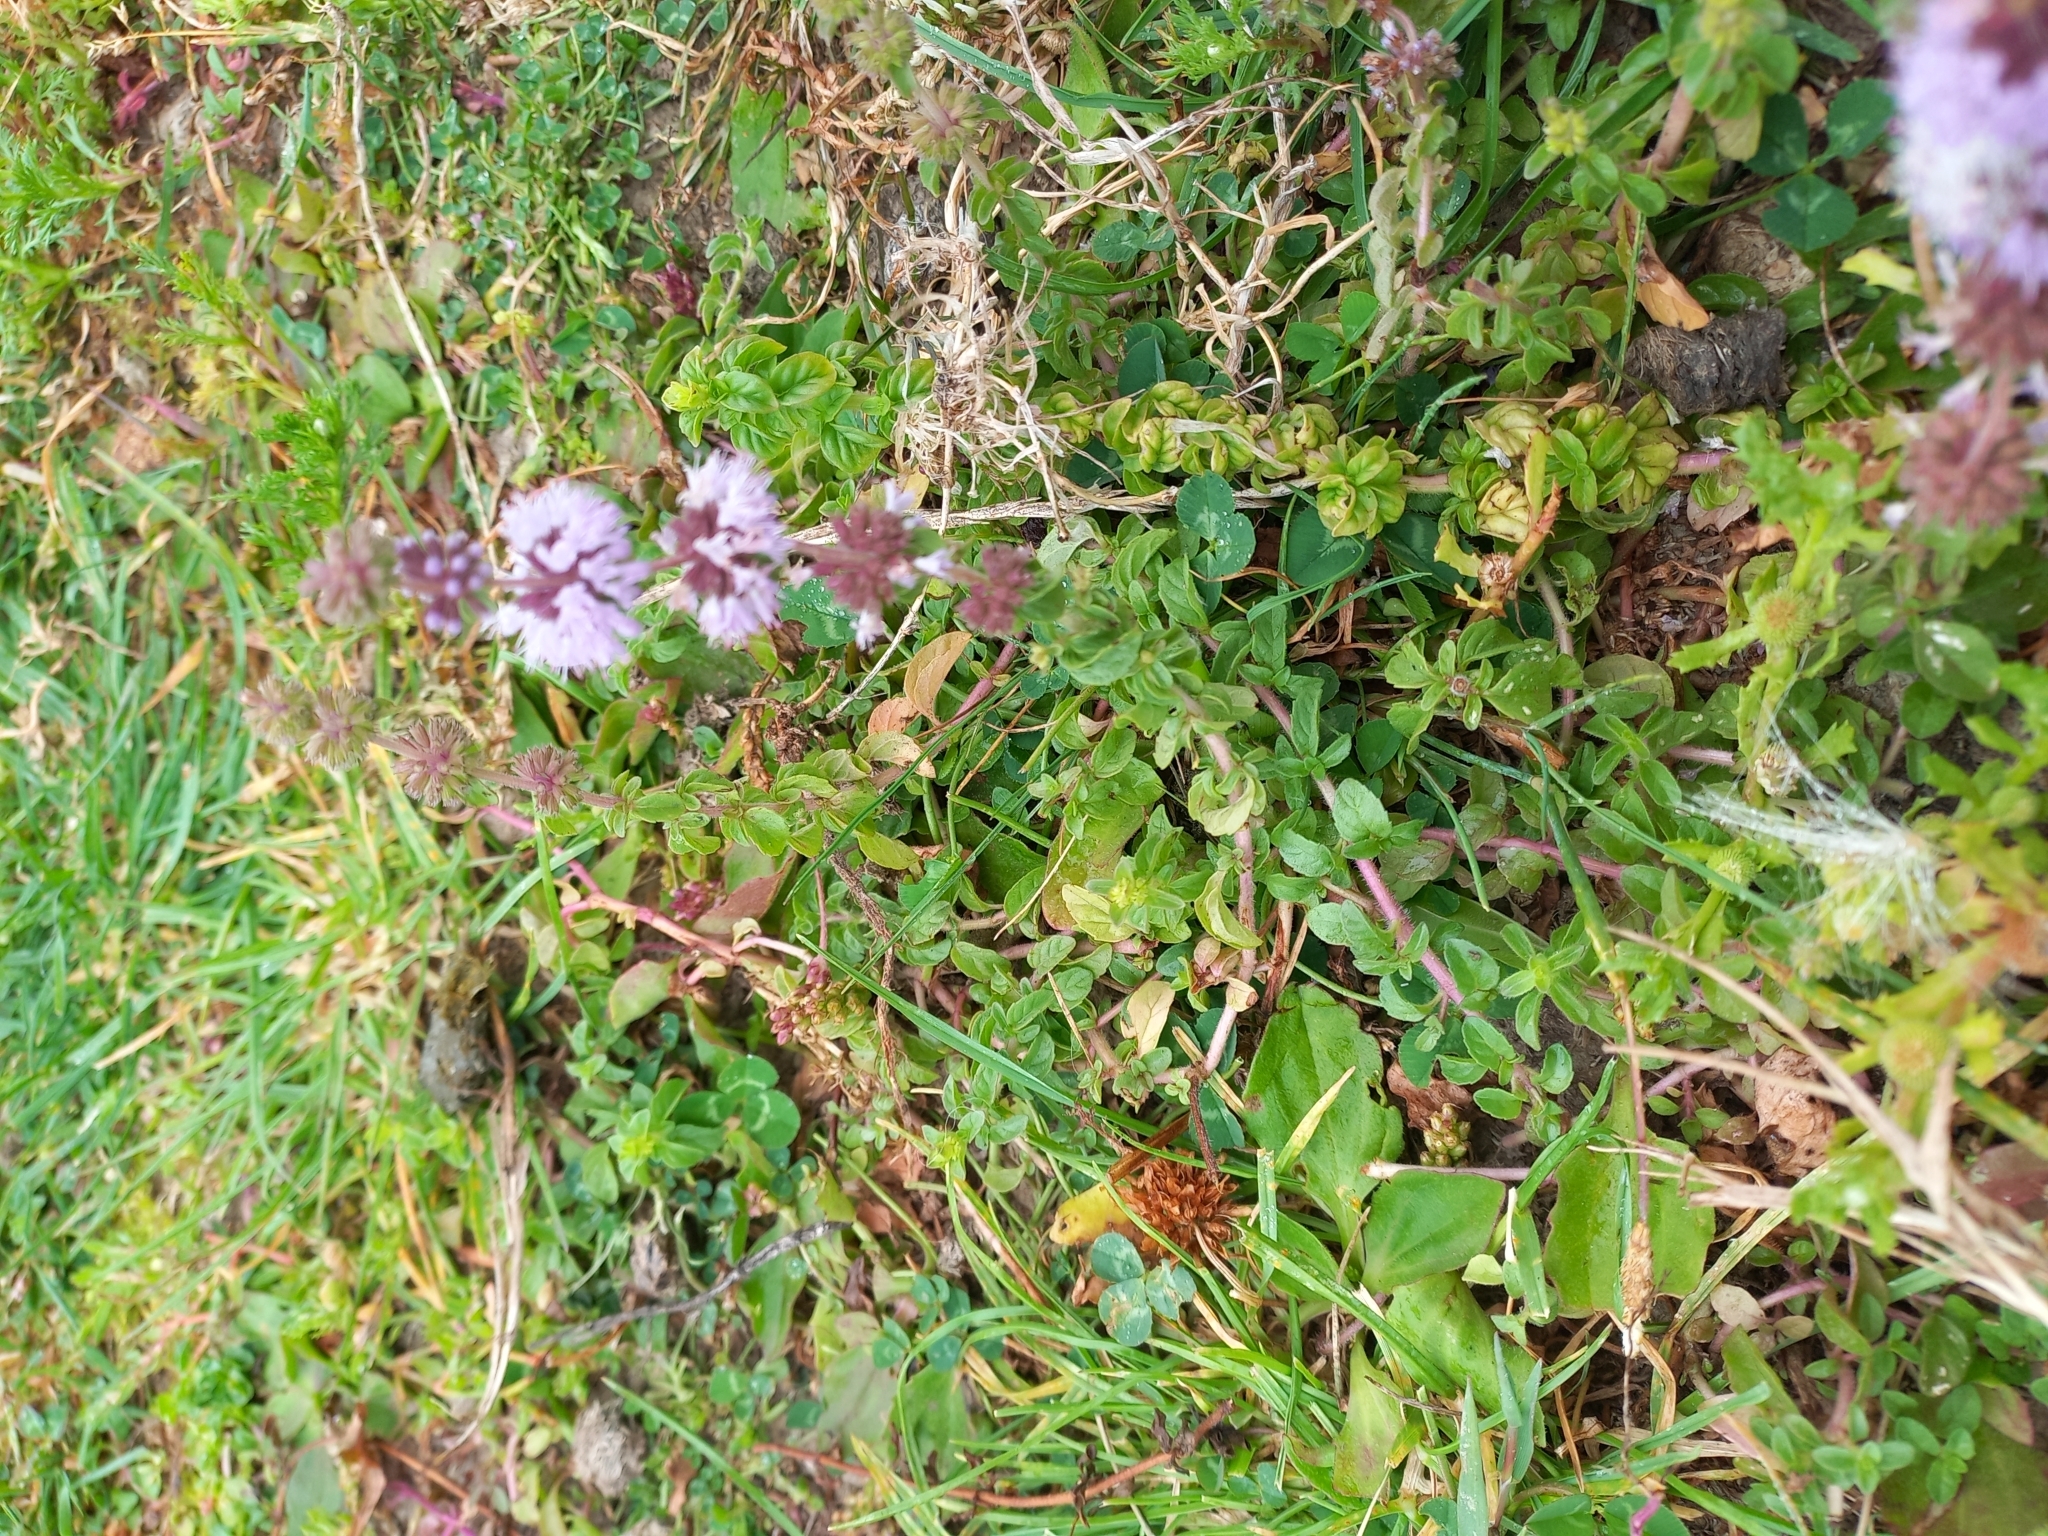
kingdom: Plantae
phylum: Tracheophyta
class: Magnoliopsida
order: Lamiales
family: Lamiaceae
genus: Mentha
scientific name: Mentha pulegium
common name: Pennyroyal
